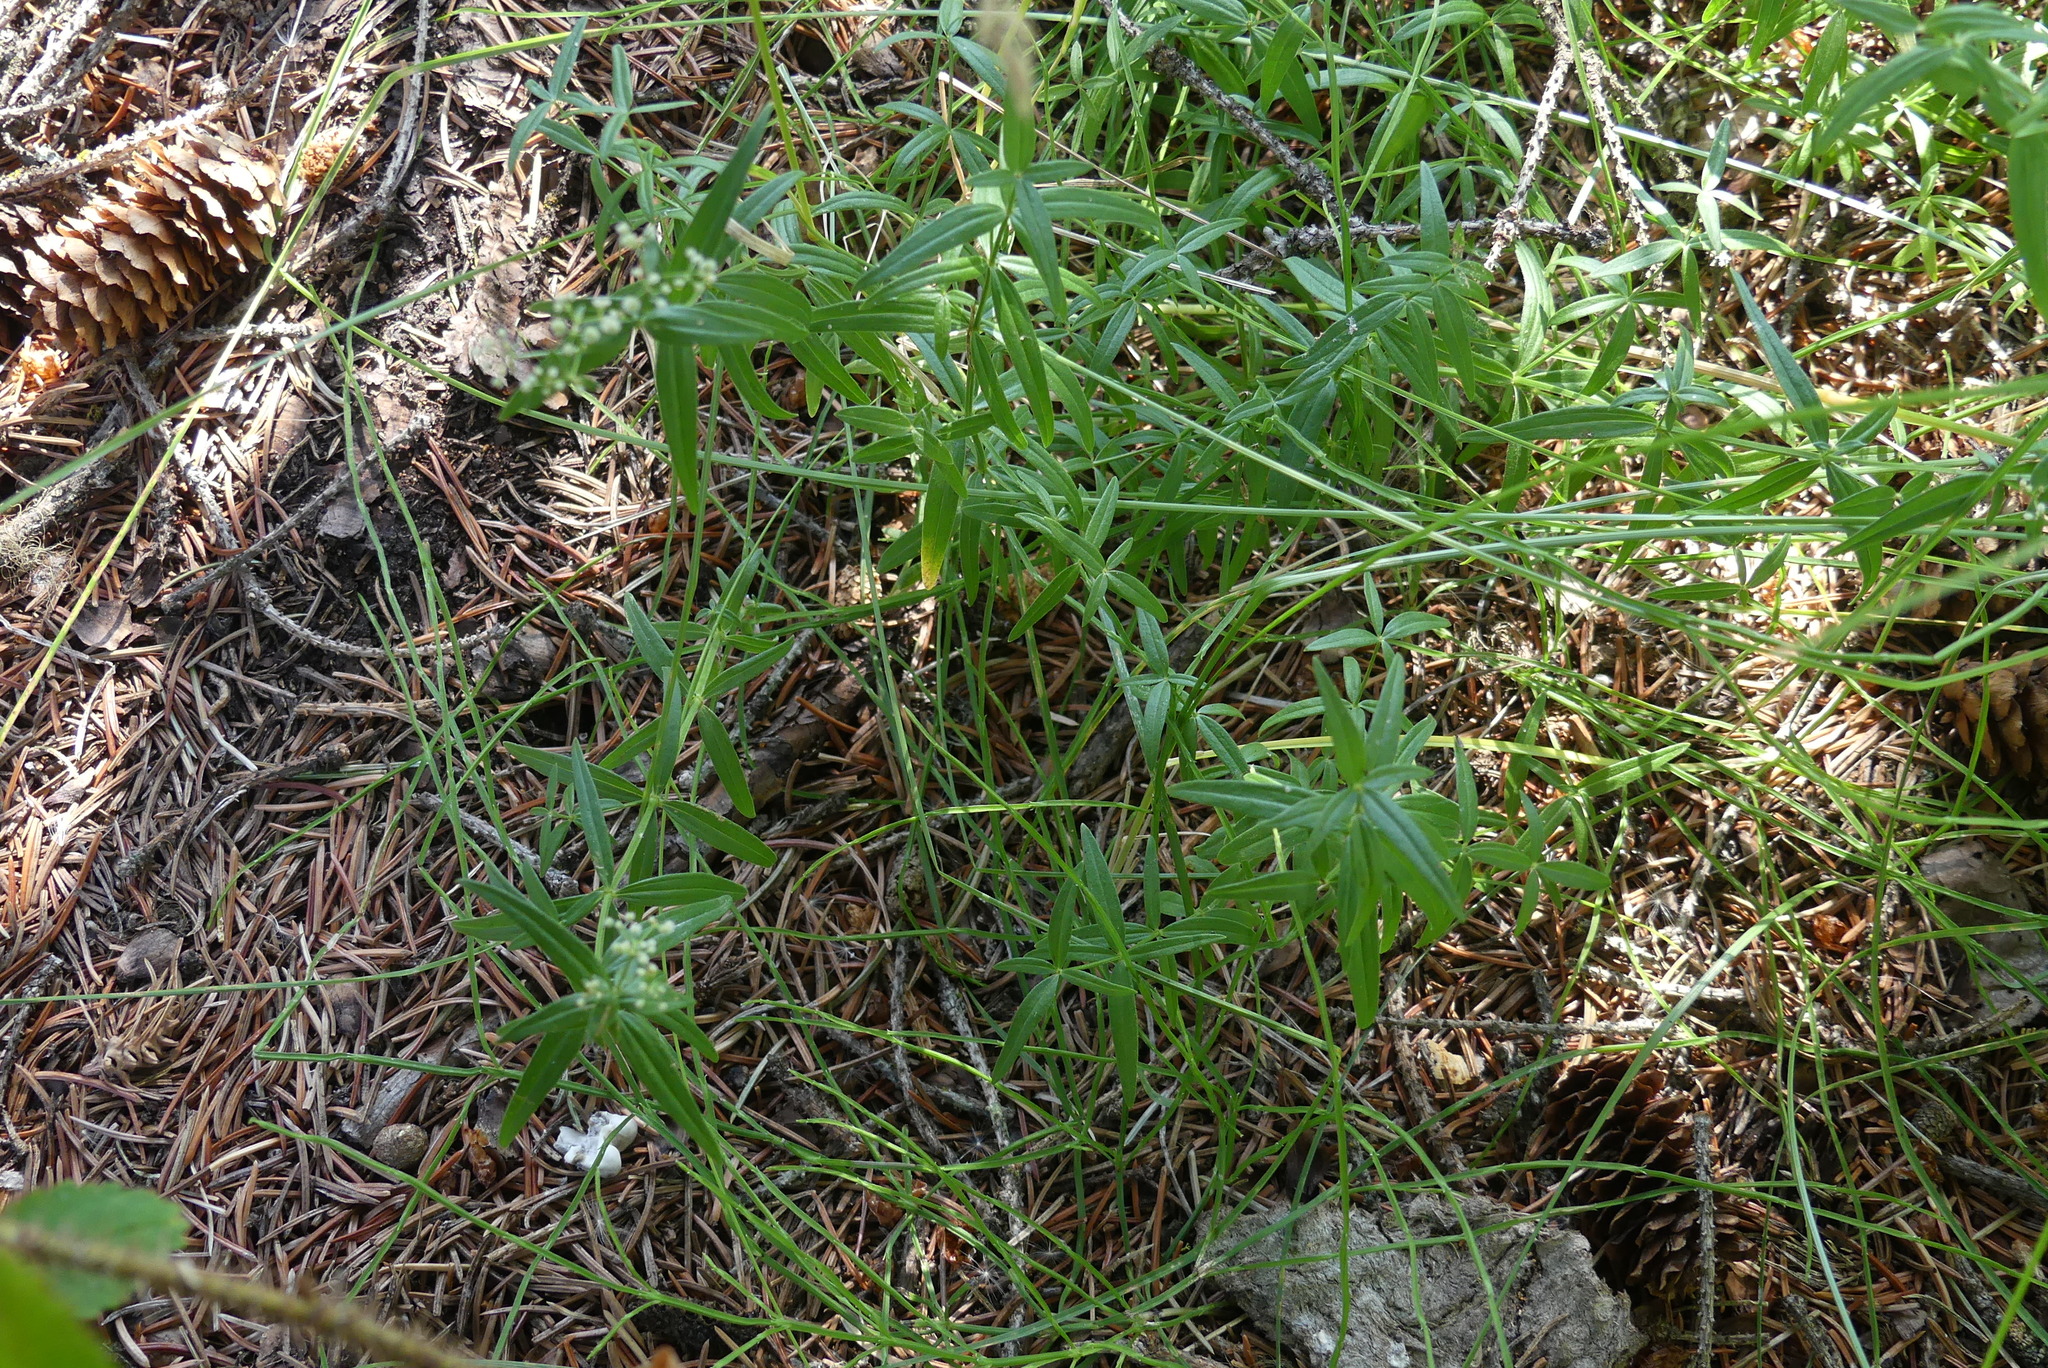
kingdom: Plantae
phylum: Tracheophyta
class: Magnoliopsida
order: Gentianales
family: Rubiaceae
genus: Galium
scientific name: Galium boreale
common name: Northern bedstraw
